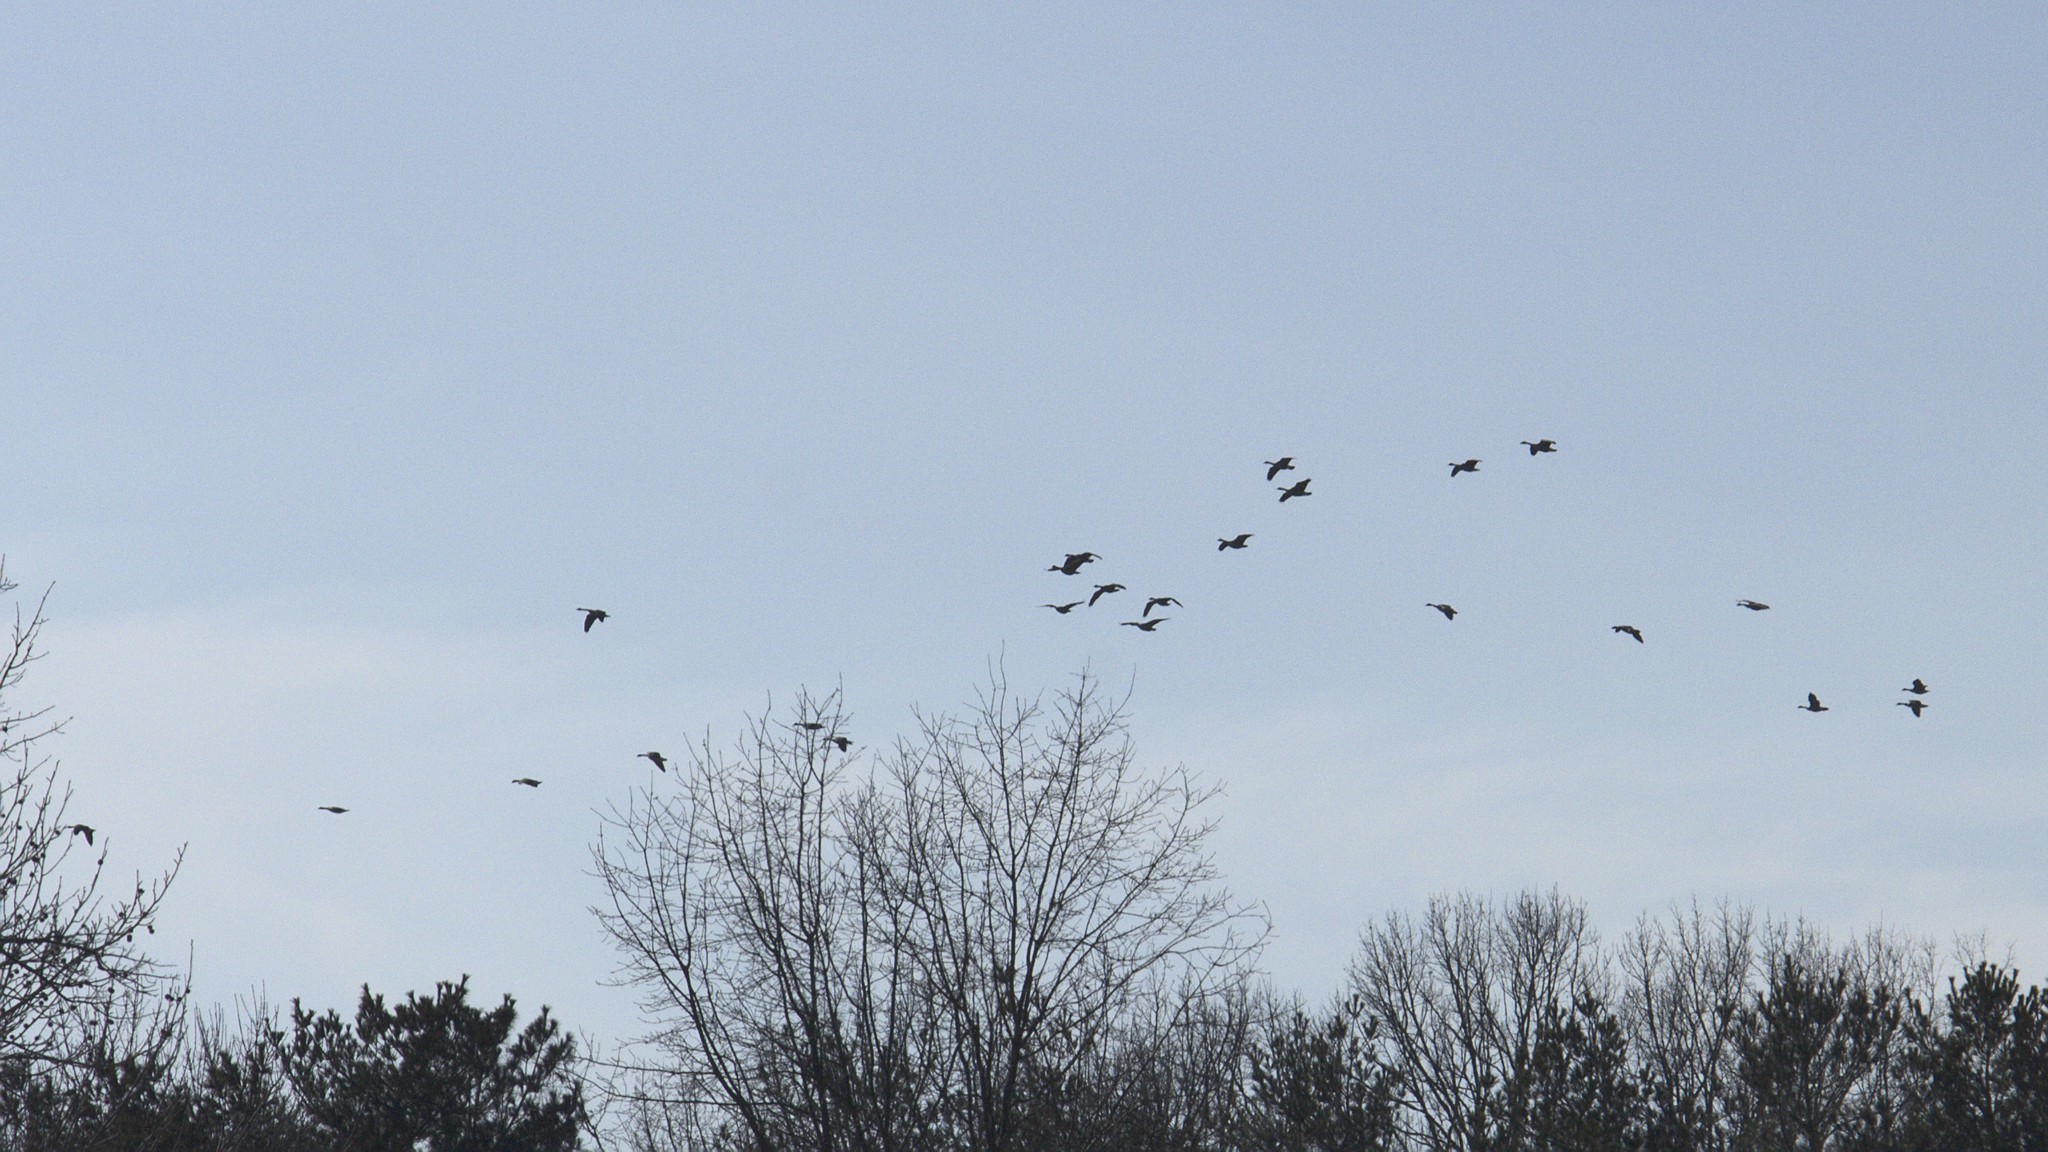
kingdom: Animalia
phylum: Chordata
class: Aves
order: Anseriformes
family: Anatidae
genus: Branta
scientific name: Branta canadensis
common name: Canada goose
